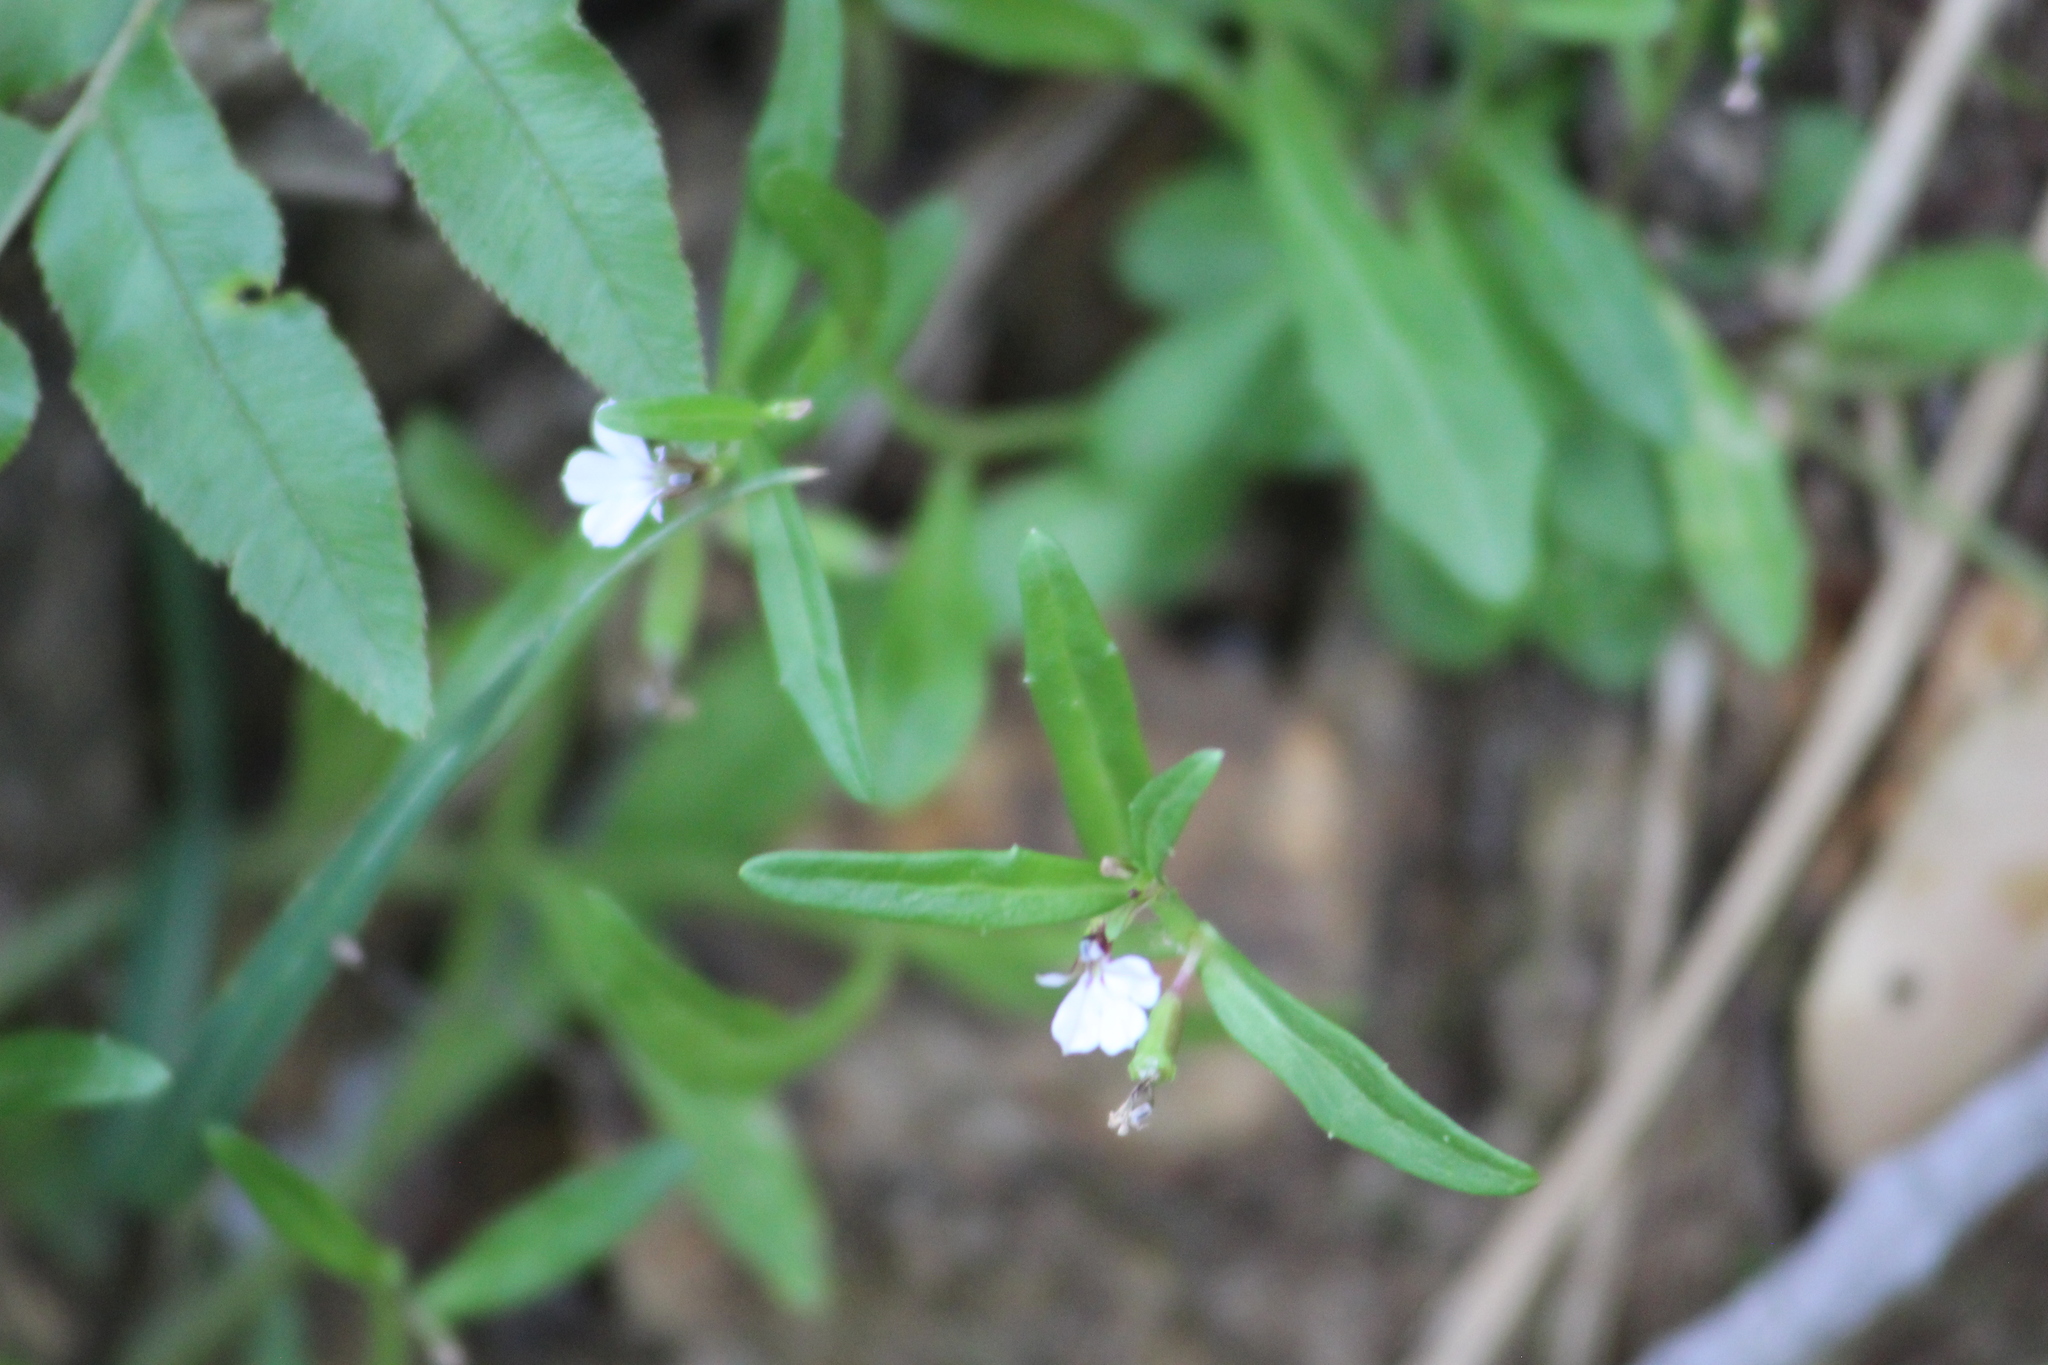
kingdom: Plantae
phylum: Tracheophyta
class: Magnoliopsida
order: Asterales
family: Campanulaceae
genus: Lobelia
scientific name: Lobelia anceps
